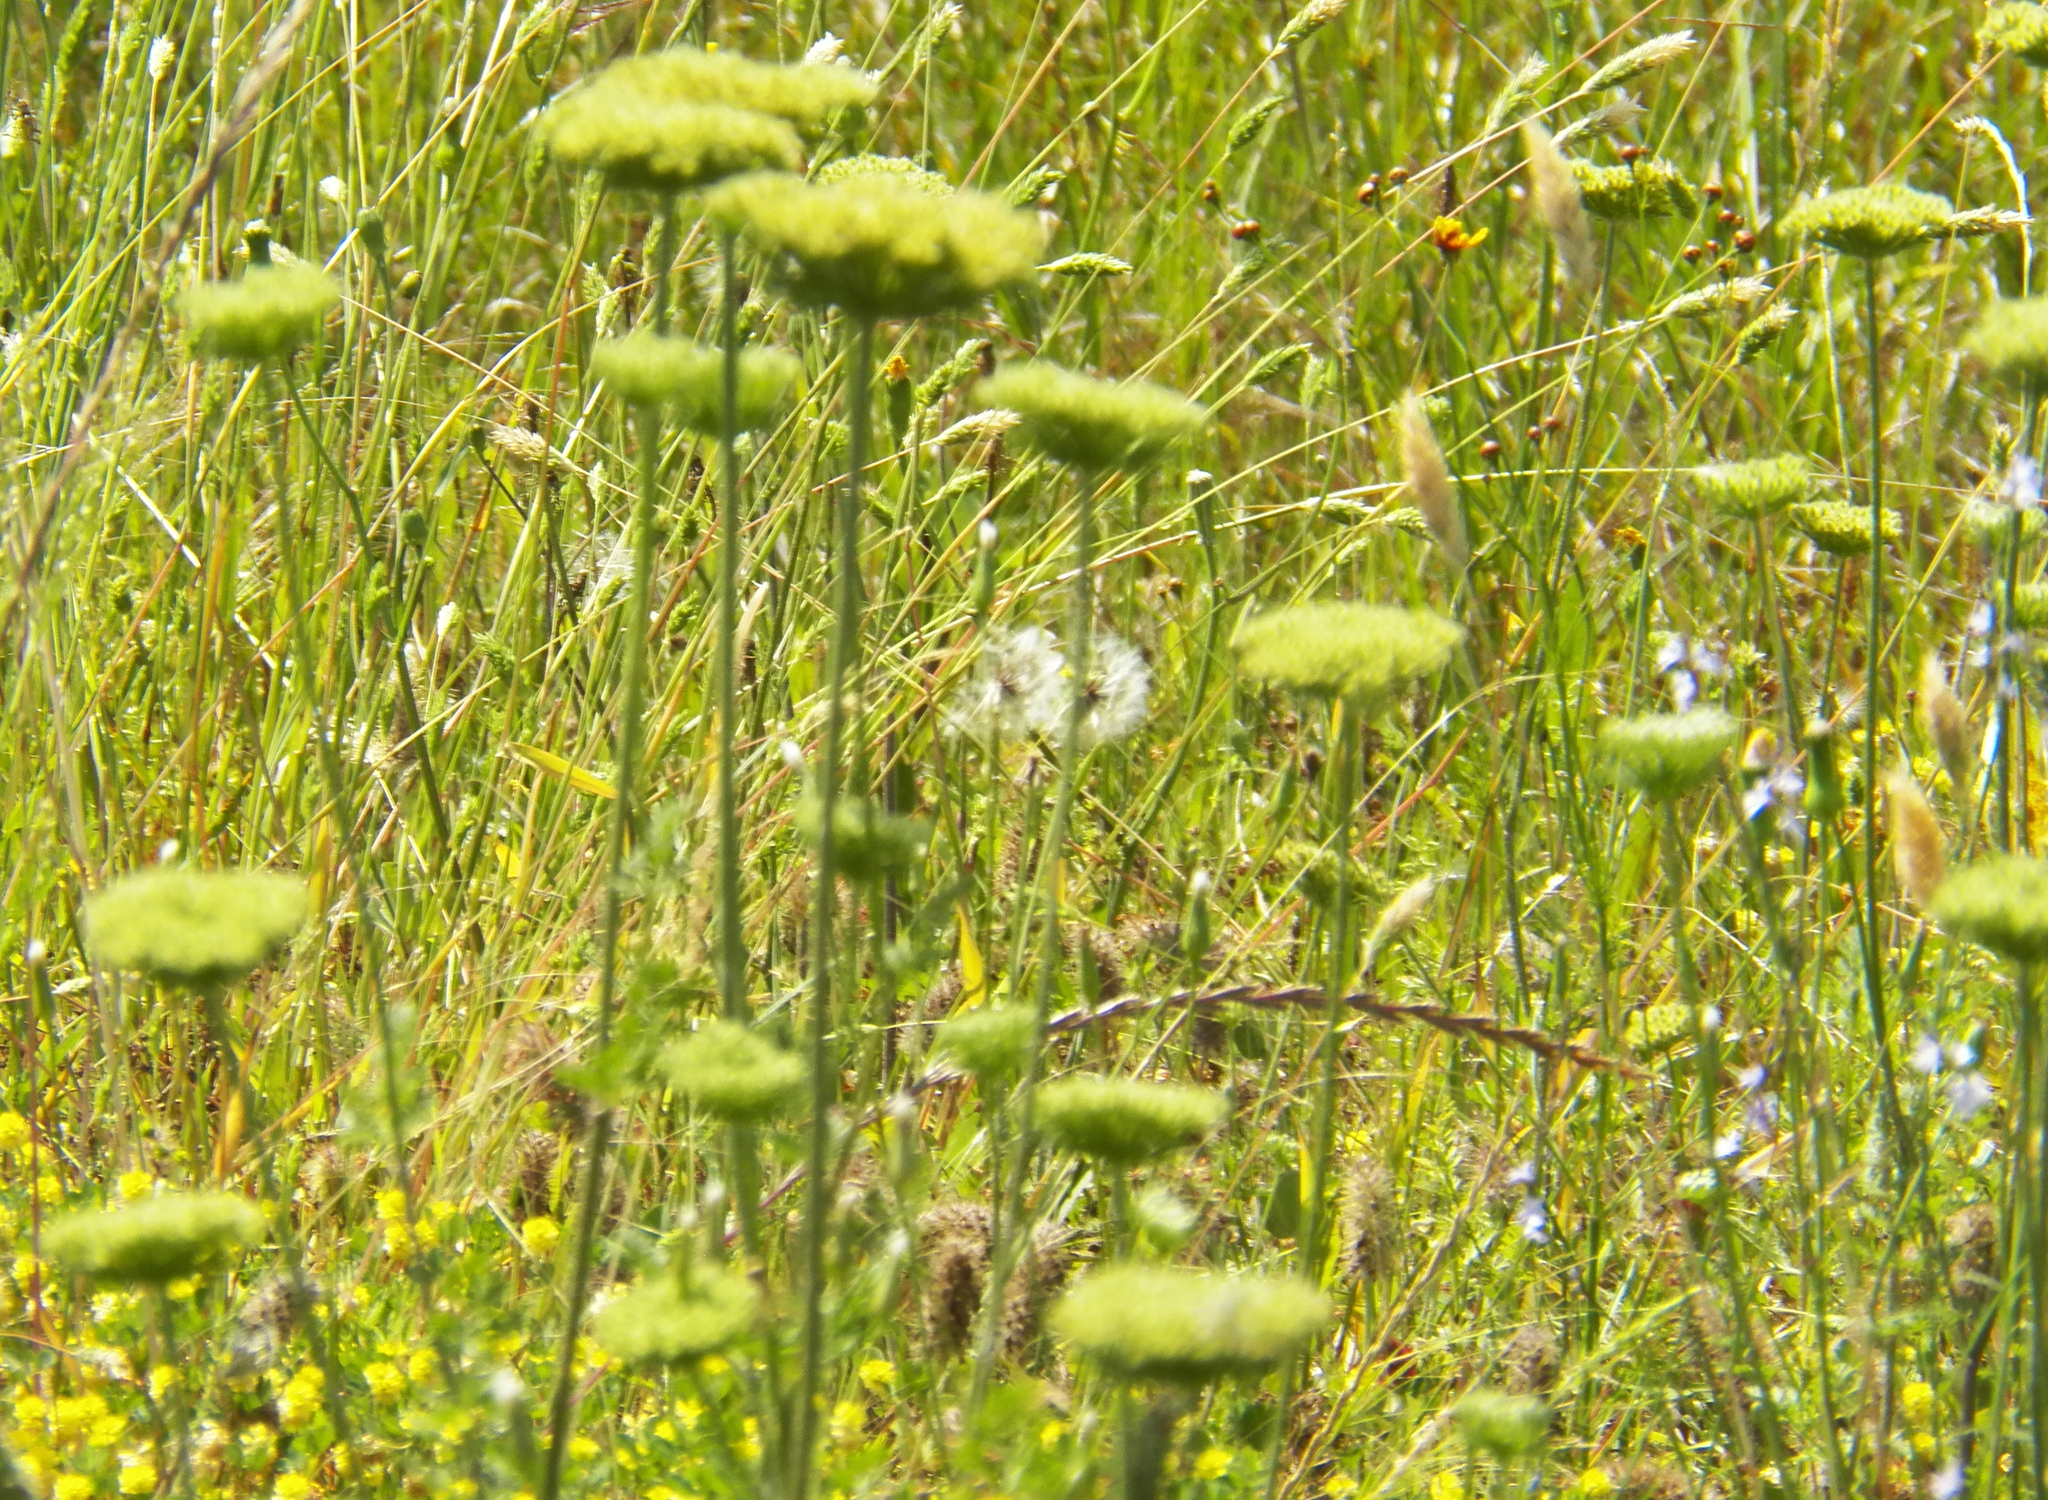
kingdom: Plantae
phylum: Tracheophyta
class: Magnoliopsida
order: Apiales
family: Apiaceae
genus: Daucus
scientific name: Daucus pusillus
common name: Southwest wild carrot
